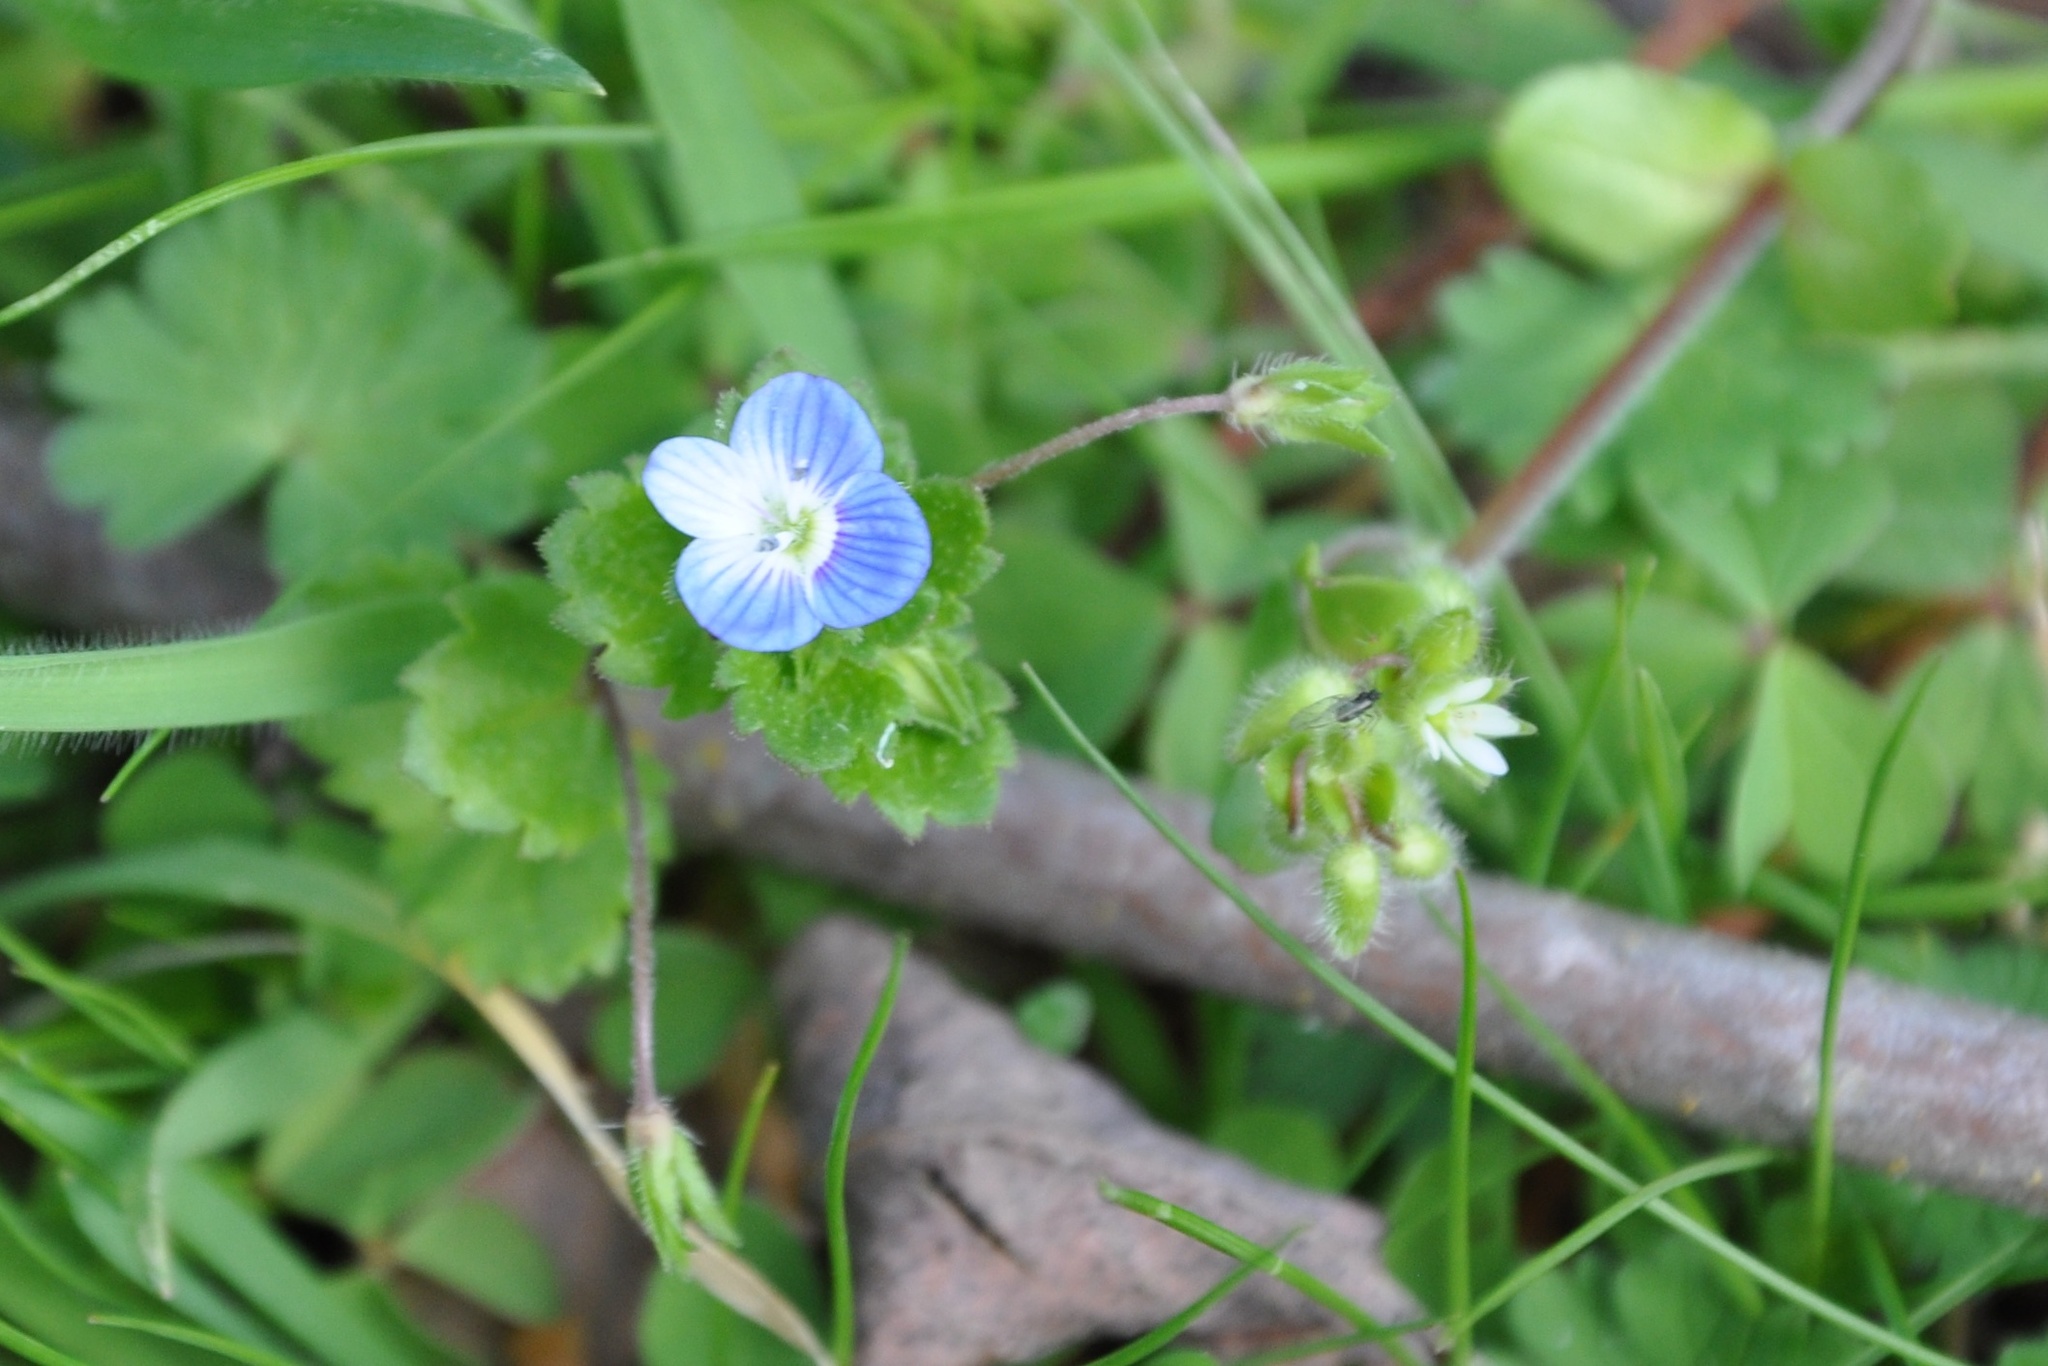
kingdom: Plantae
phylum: Tracheophyta
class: Magnoliopsida
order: Lamiales
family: Plantaginaceae
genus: Veronica
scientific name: Veronica persica
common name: Common field-speedwell
